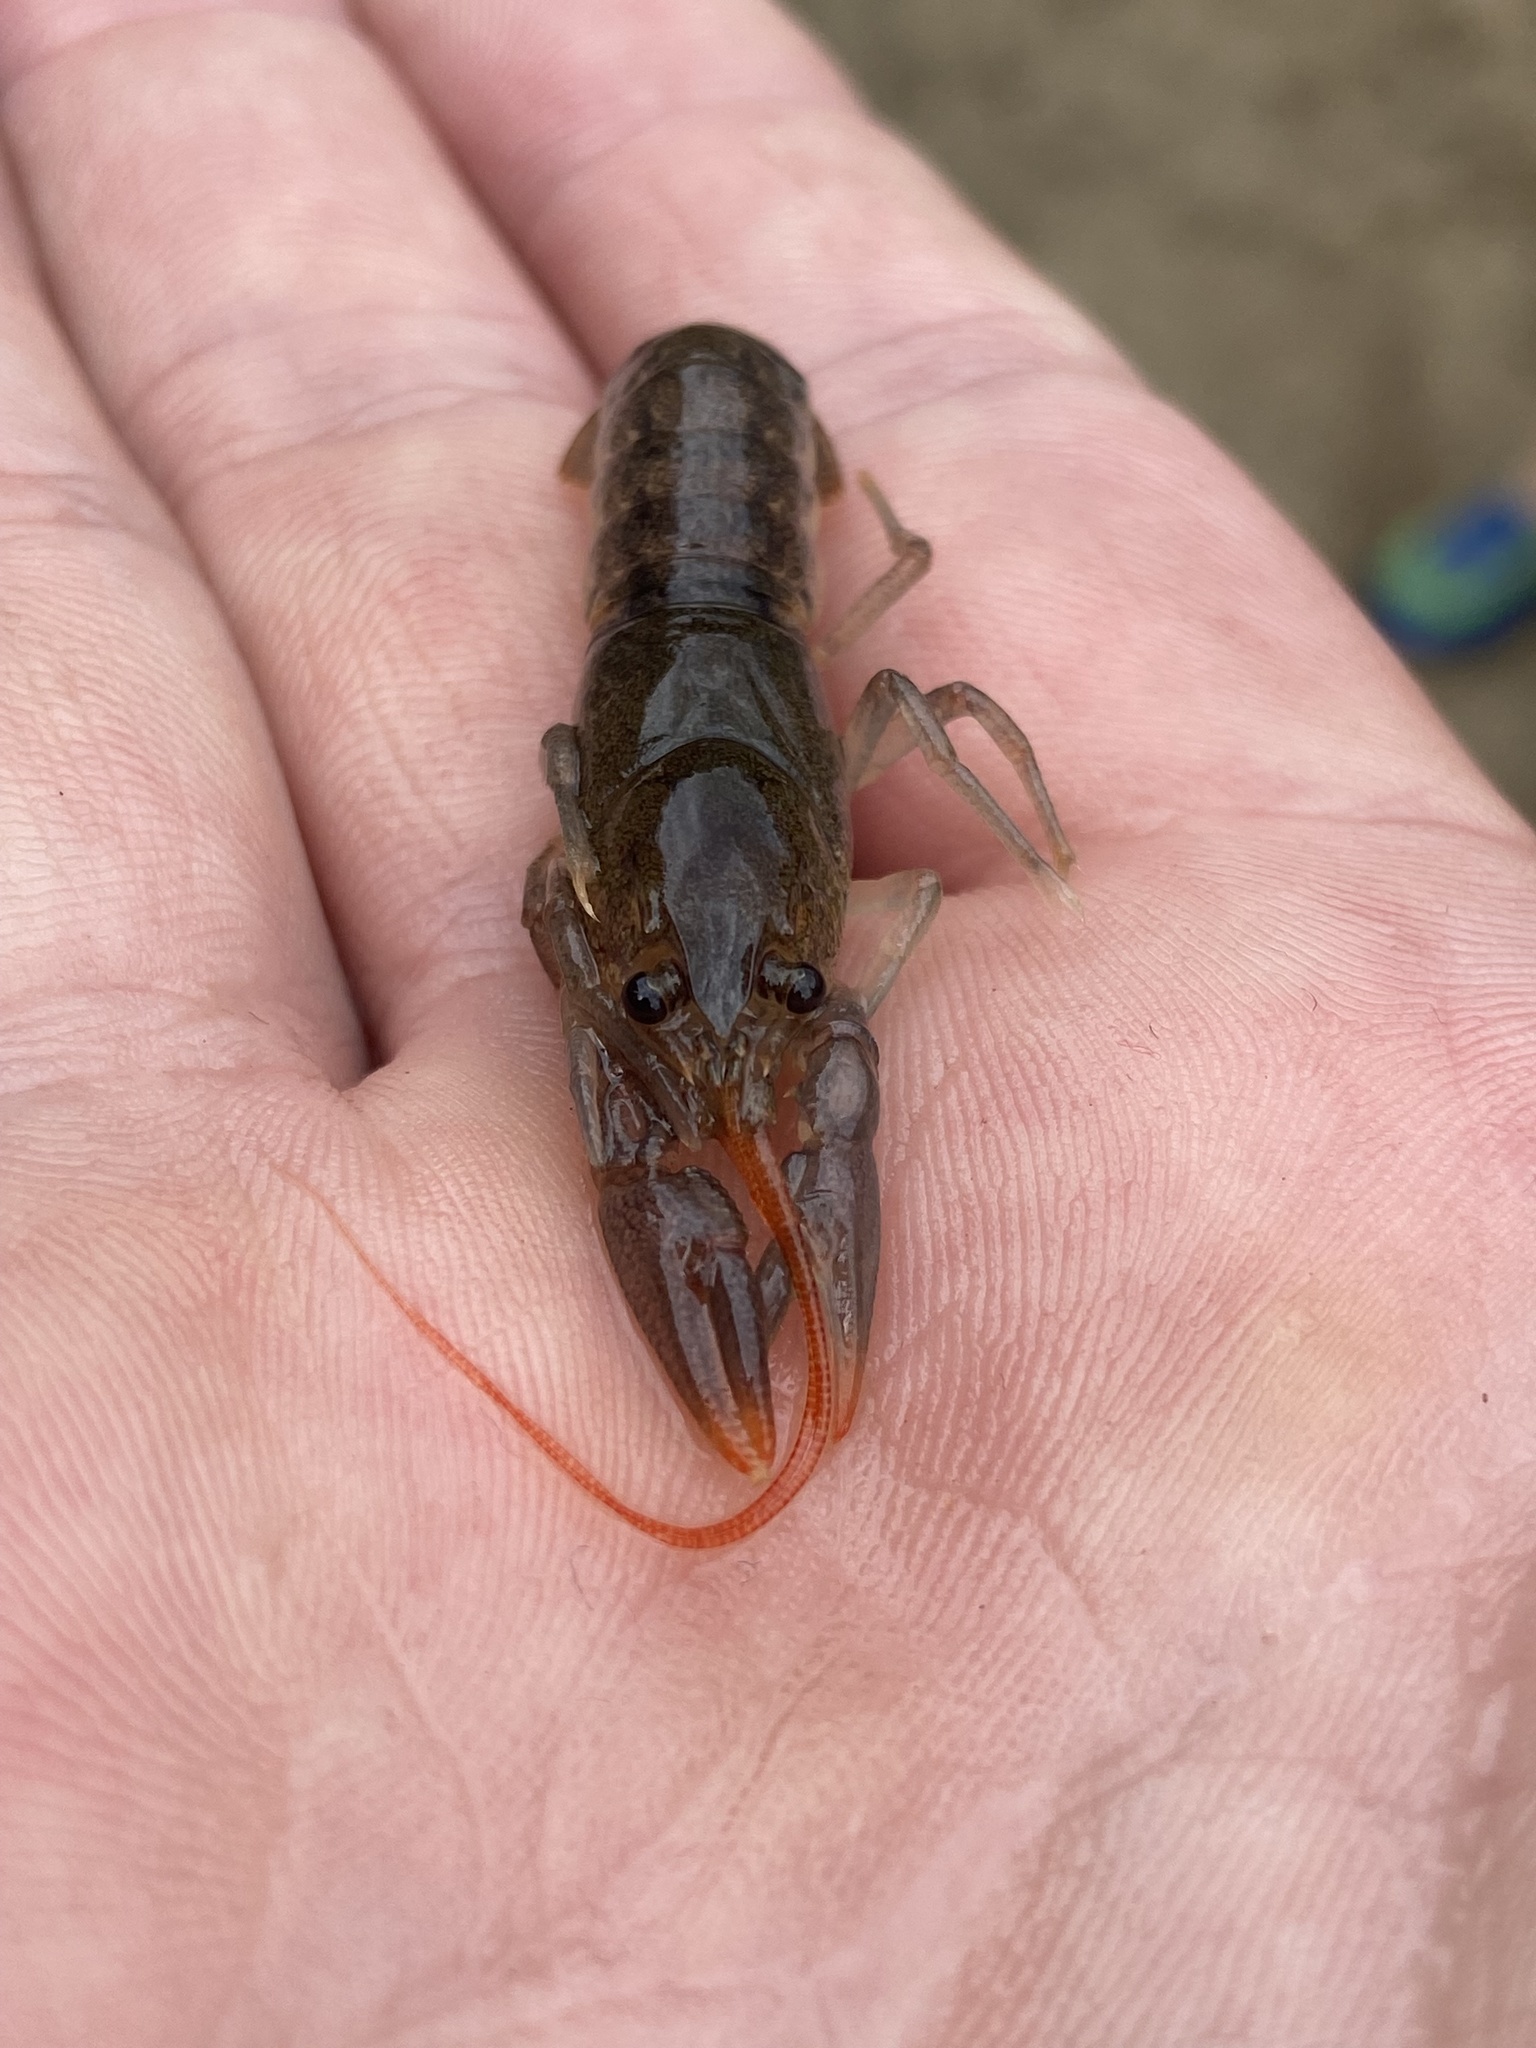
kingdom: Animalia
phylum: Arthropoda
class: Malacostraca
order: Decapoda
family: Cambaridae
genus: Cambarus
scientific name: Cambarus robustus
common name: Big water crayfish
